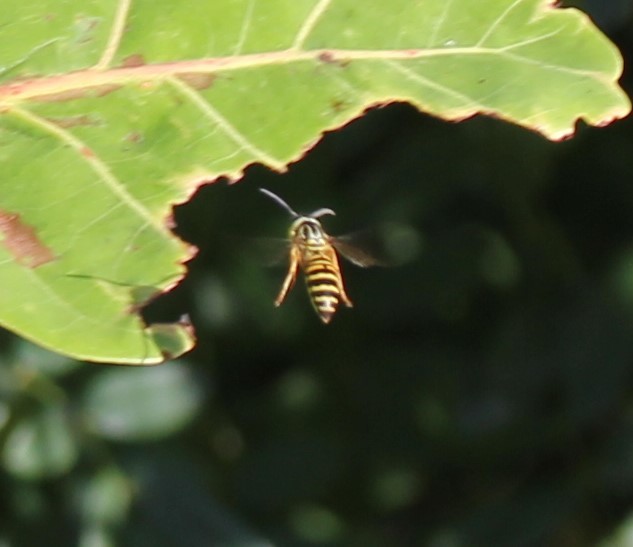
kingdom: Animalia
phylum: Arthropoda
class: Insecta
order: Hymenoptera
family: Vespidae
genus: Vespula
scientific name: Vespula squamosa
